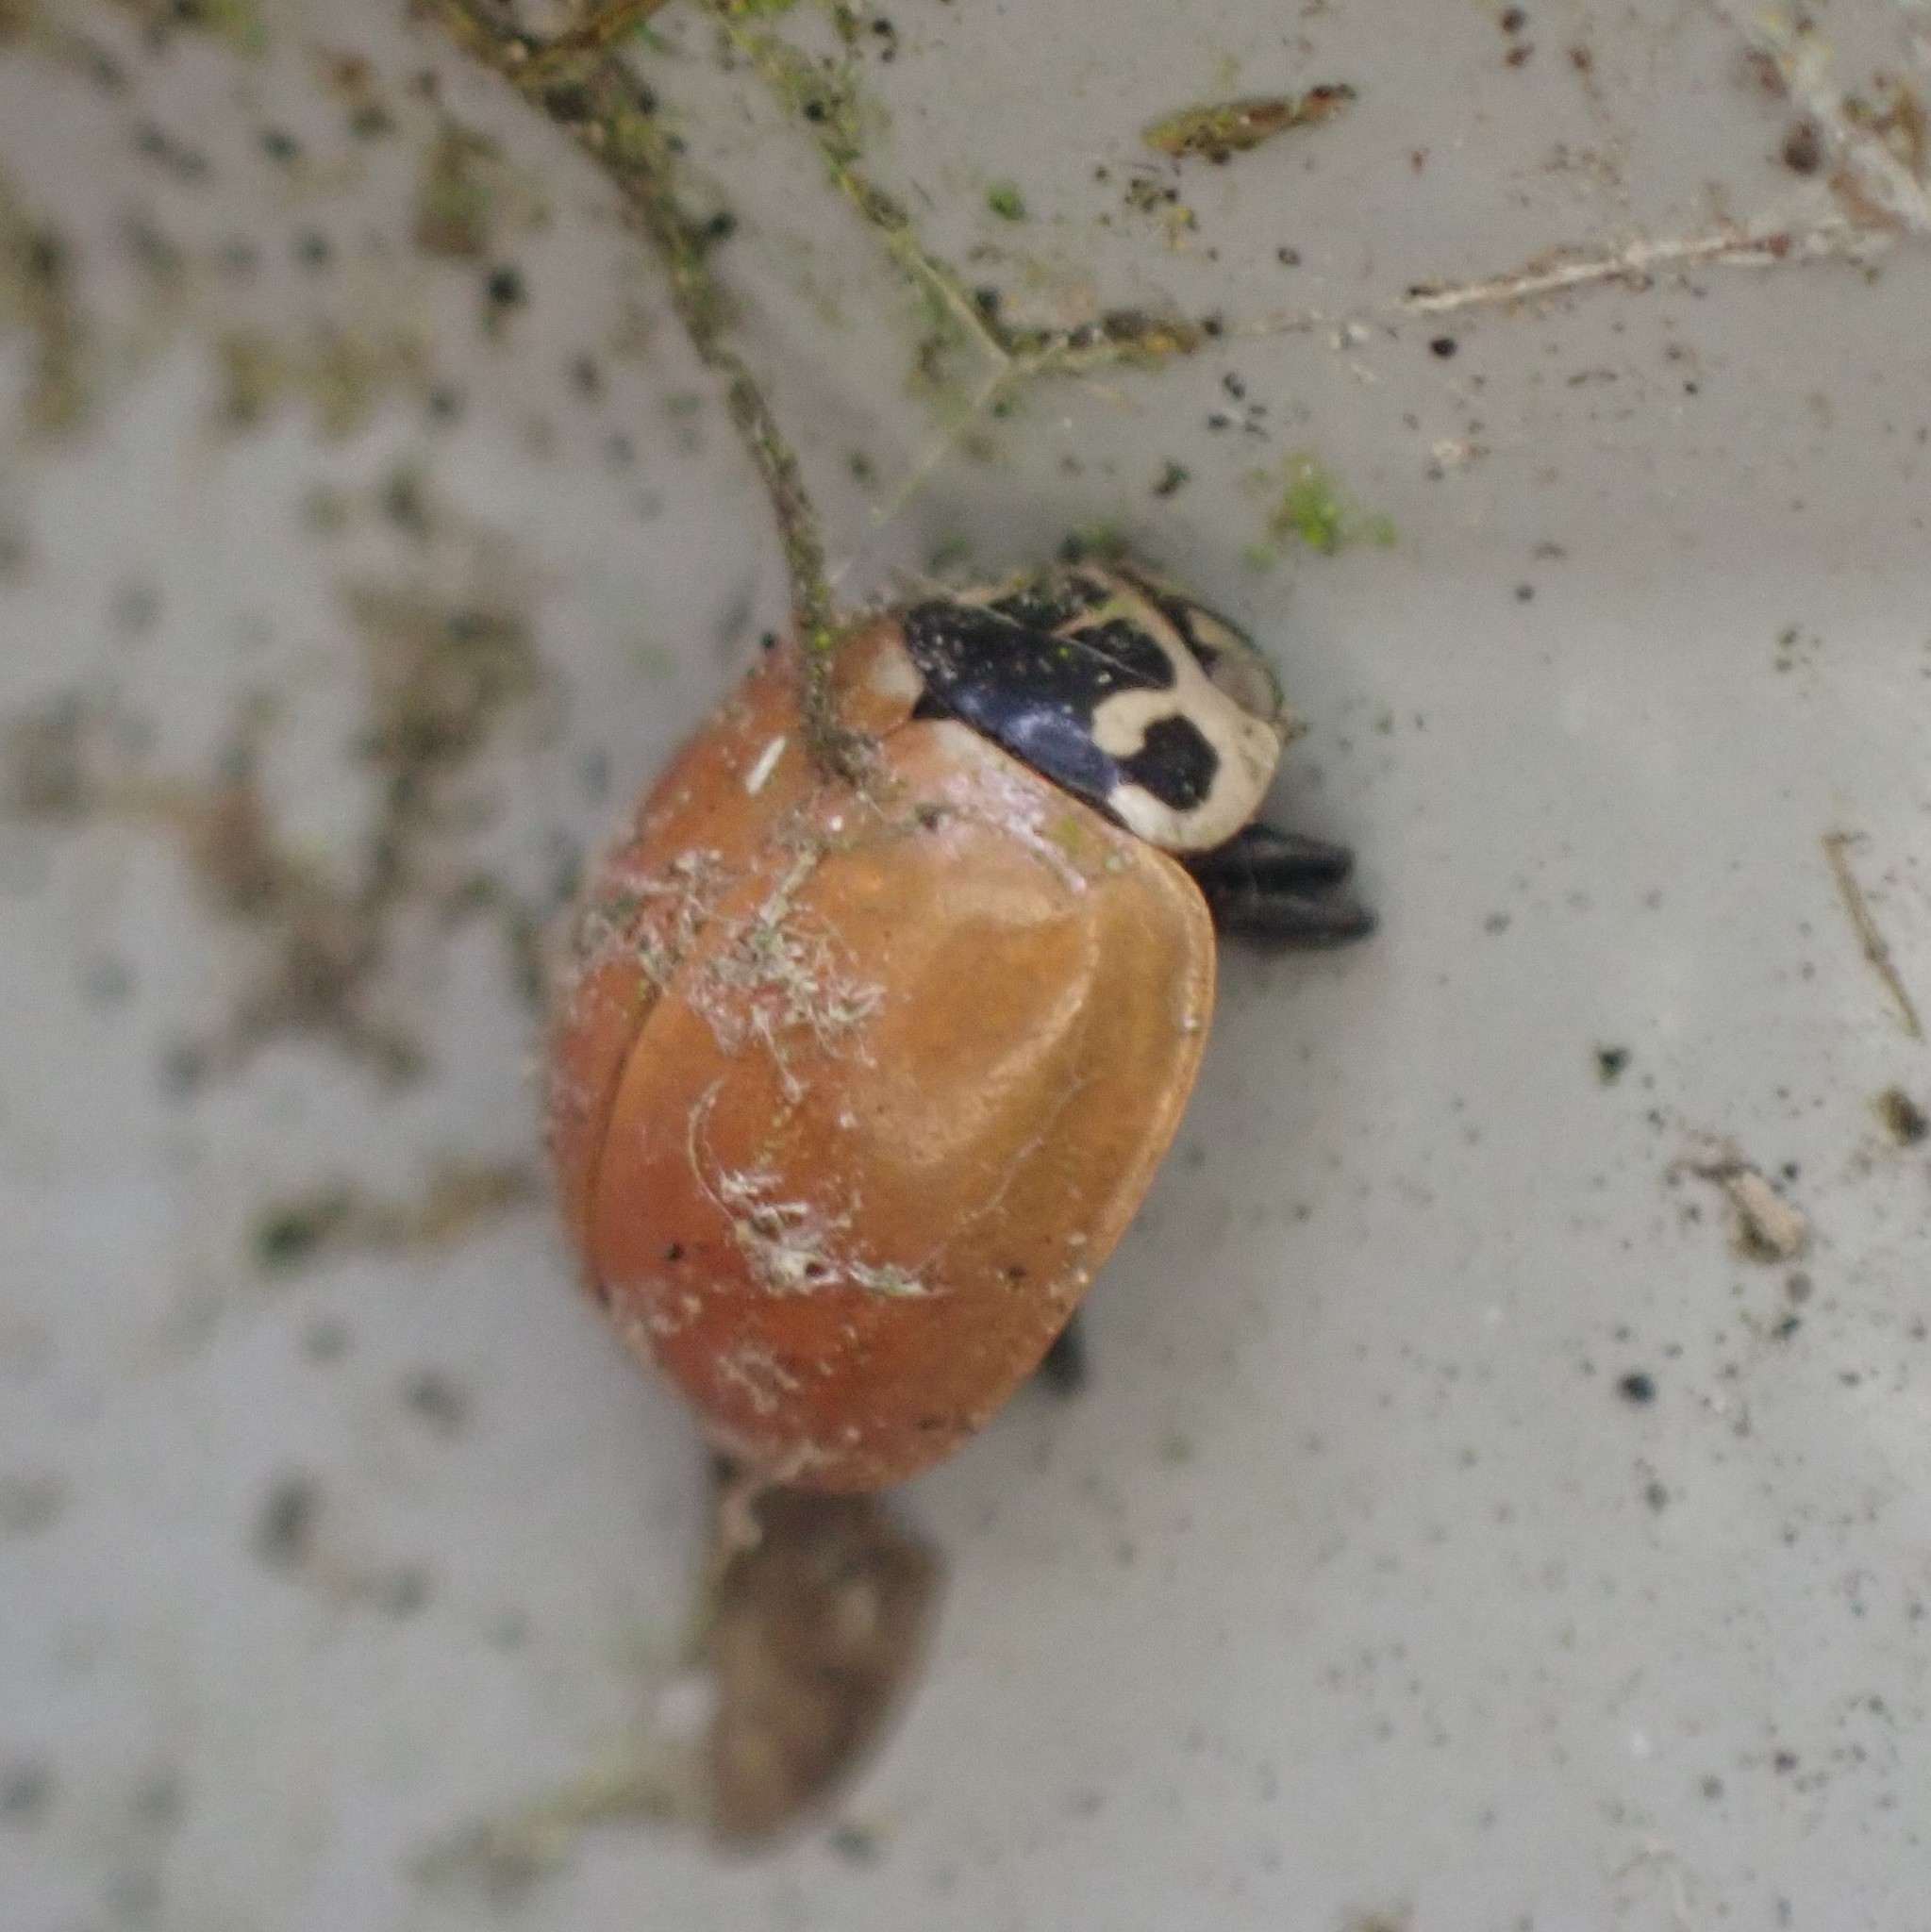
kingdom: Animalia
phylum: Arthropoda
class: Insecta
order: Coleoptera
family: Coccinellidae
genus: Cycloneda
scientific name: Cycloneda polita
